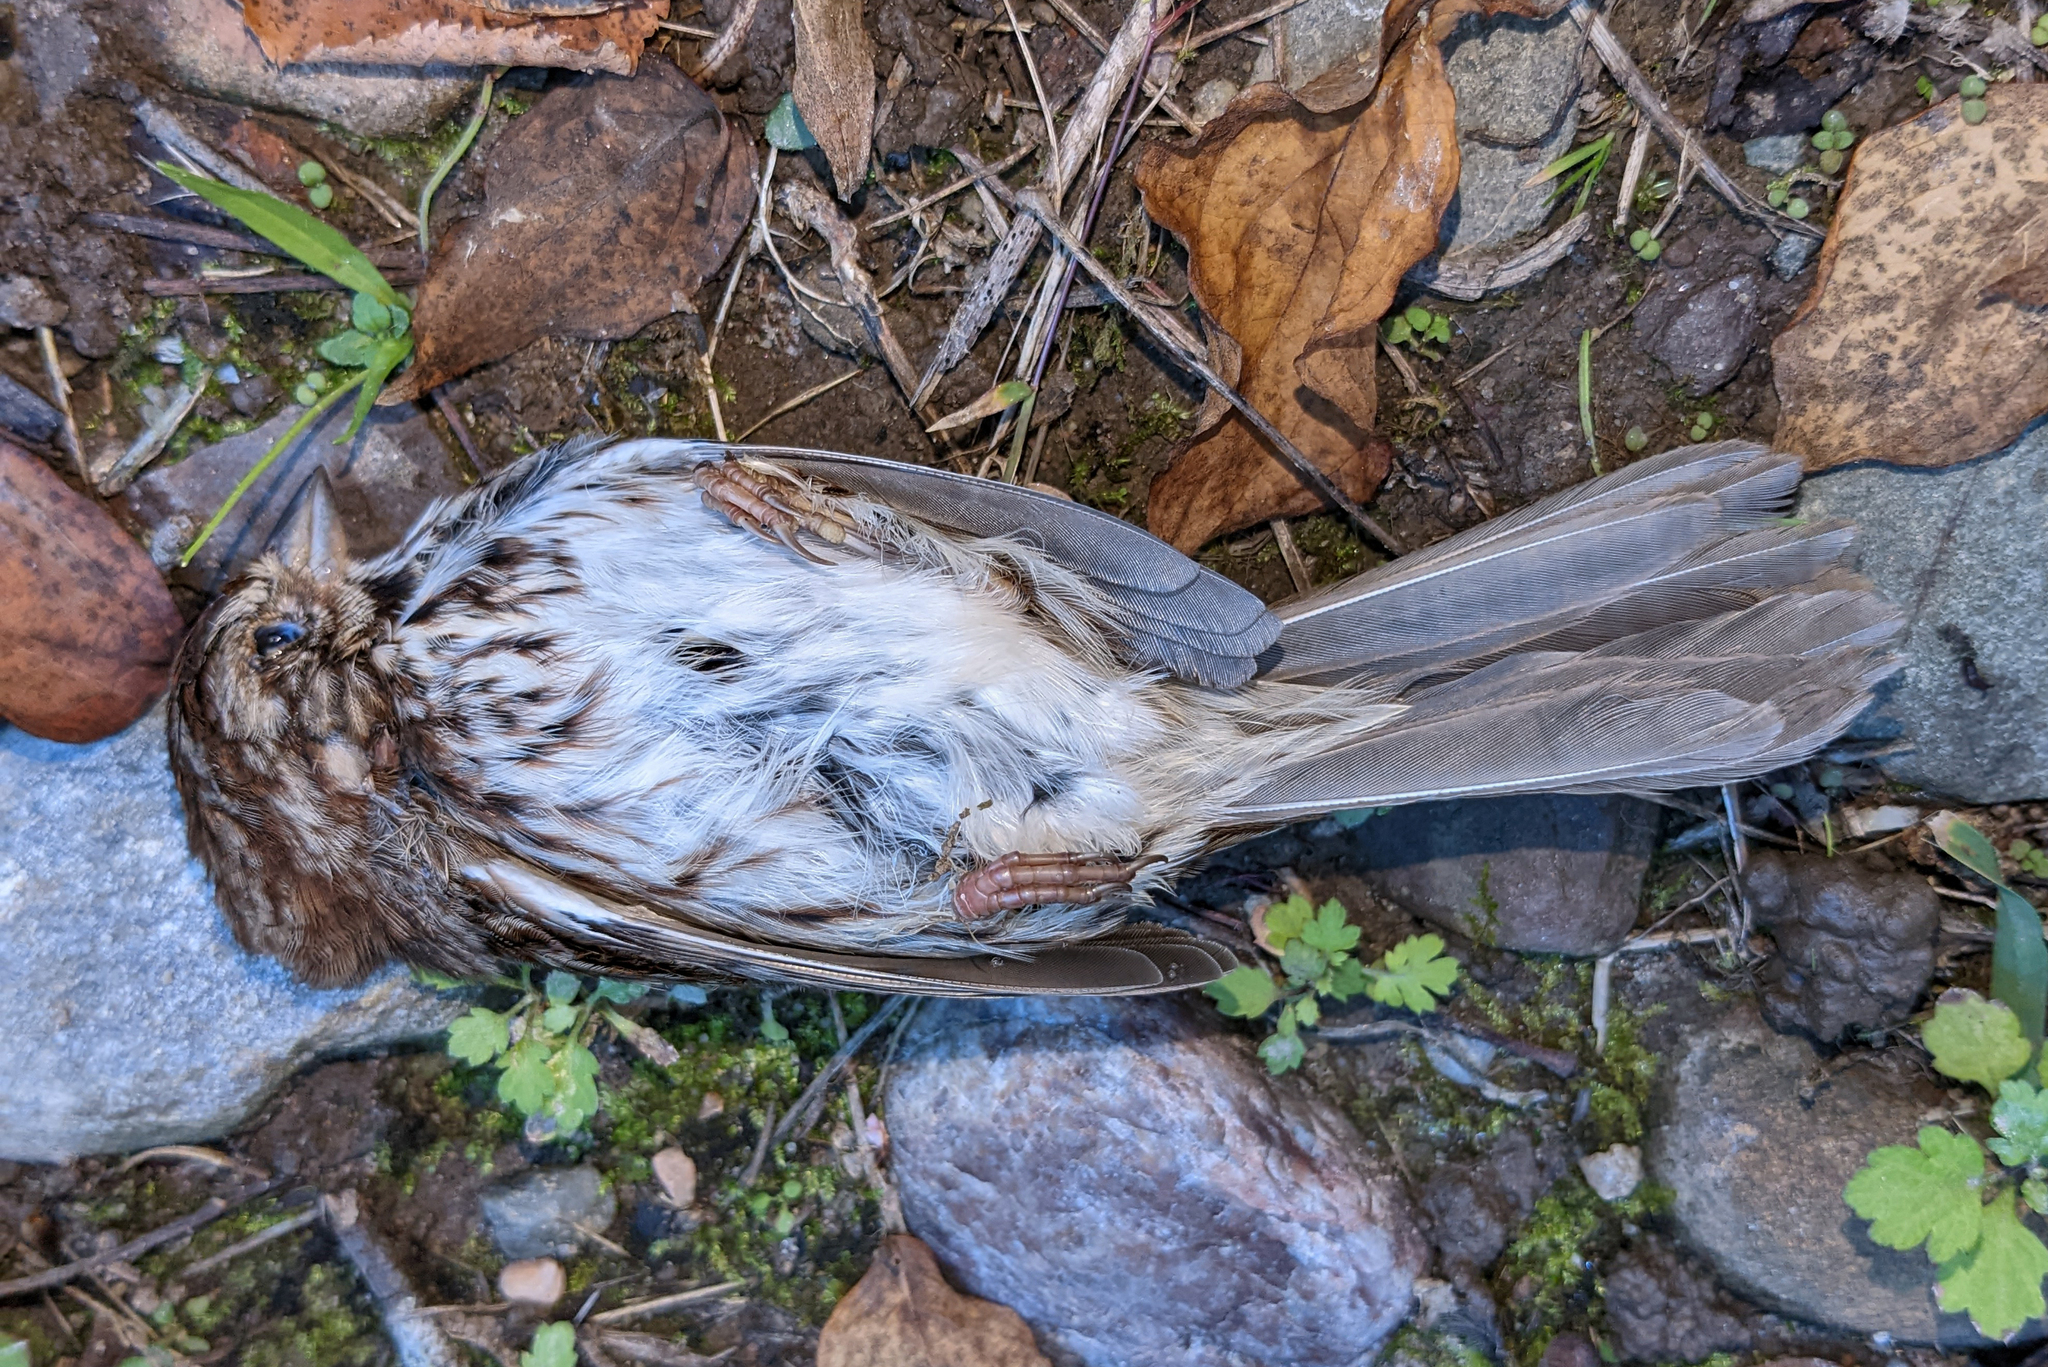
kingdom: Animalia
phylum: Chordata
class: Aves
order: Passeriformes
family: Passerellidae
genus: Melospiza
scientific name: Melospiza melodia
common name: Song sparrow
